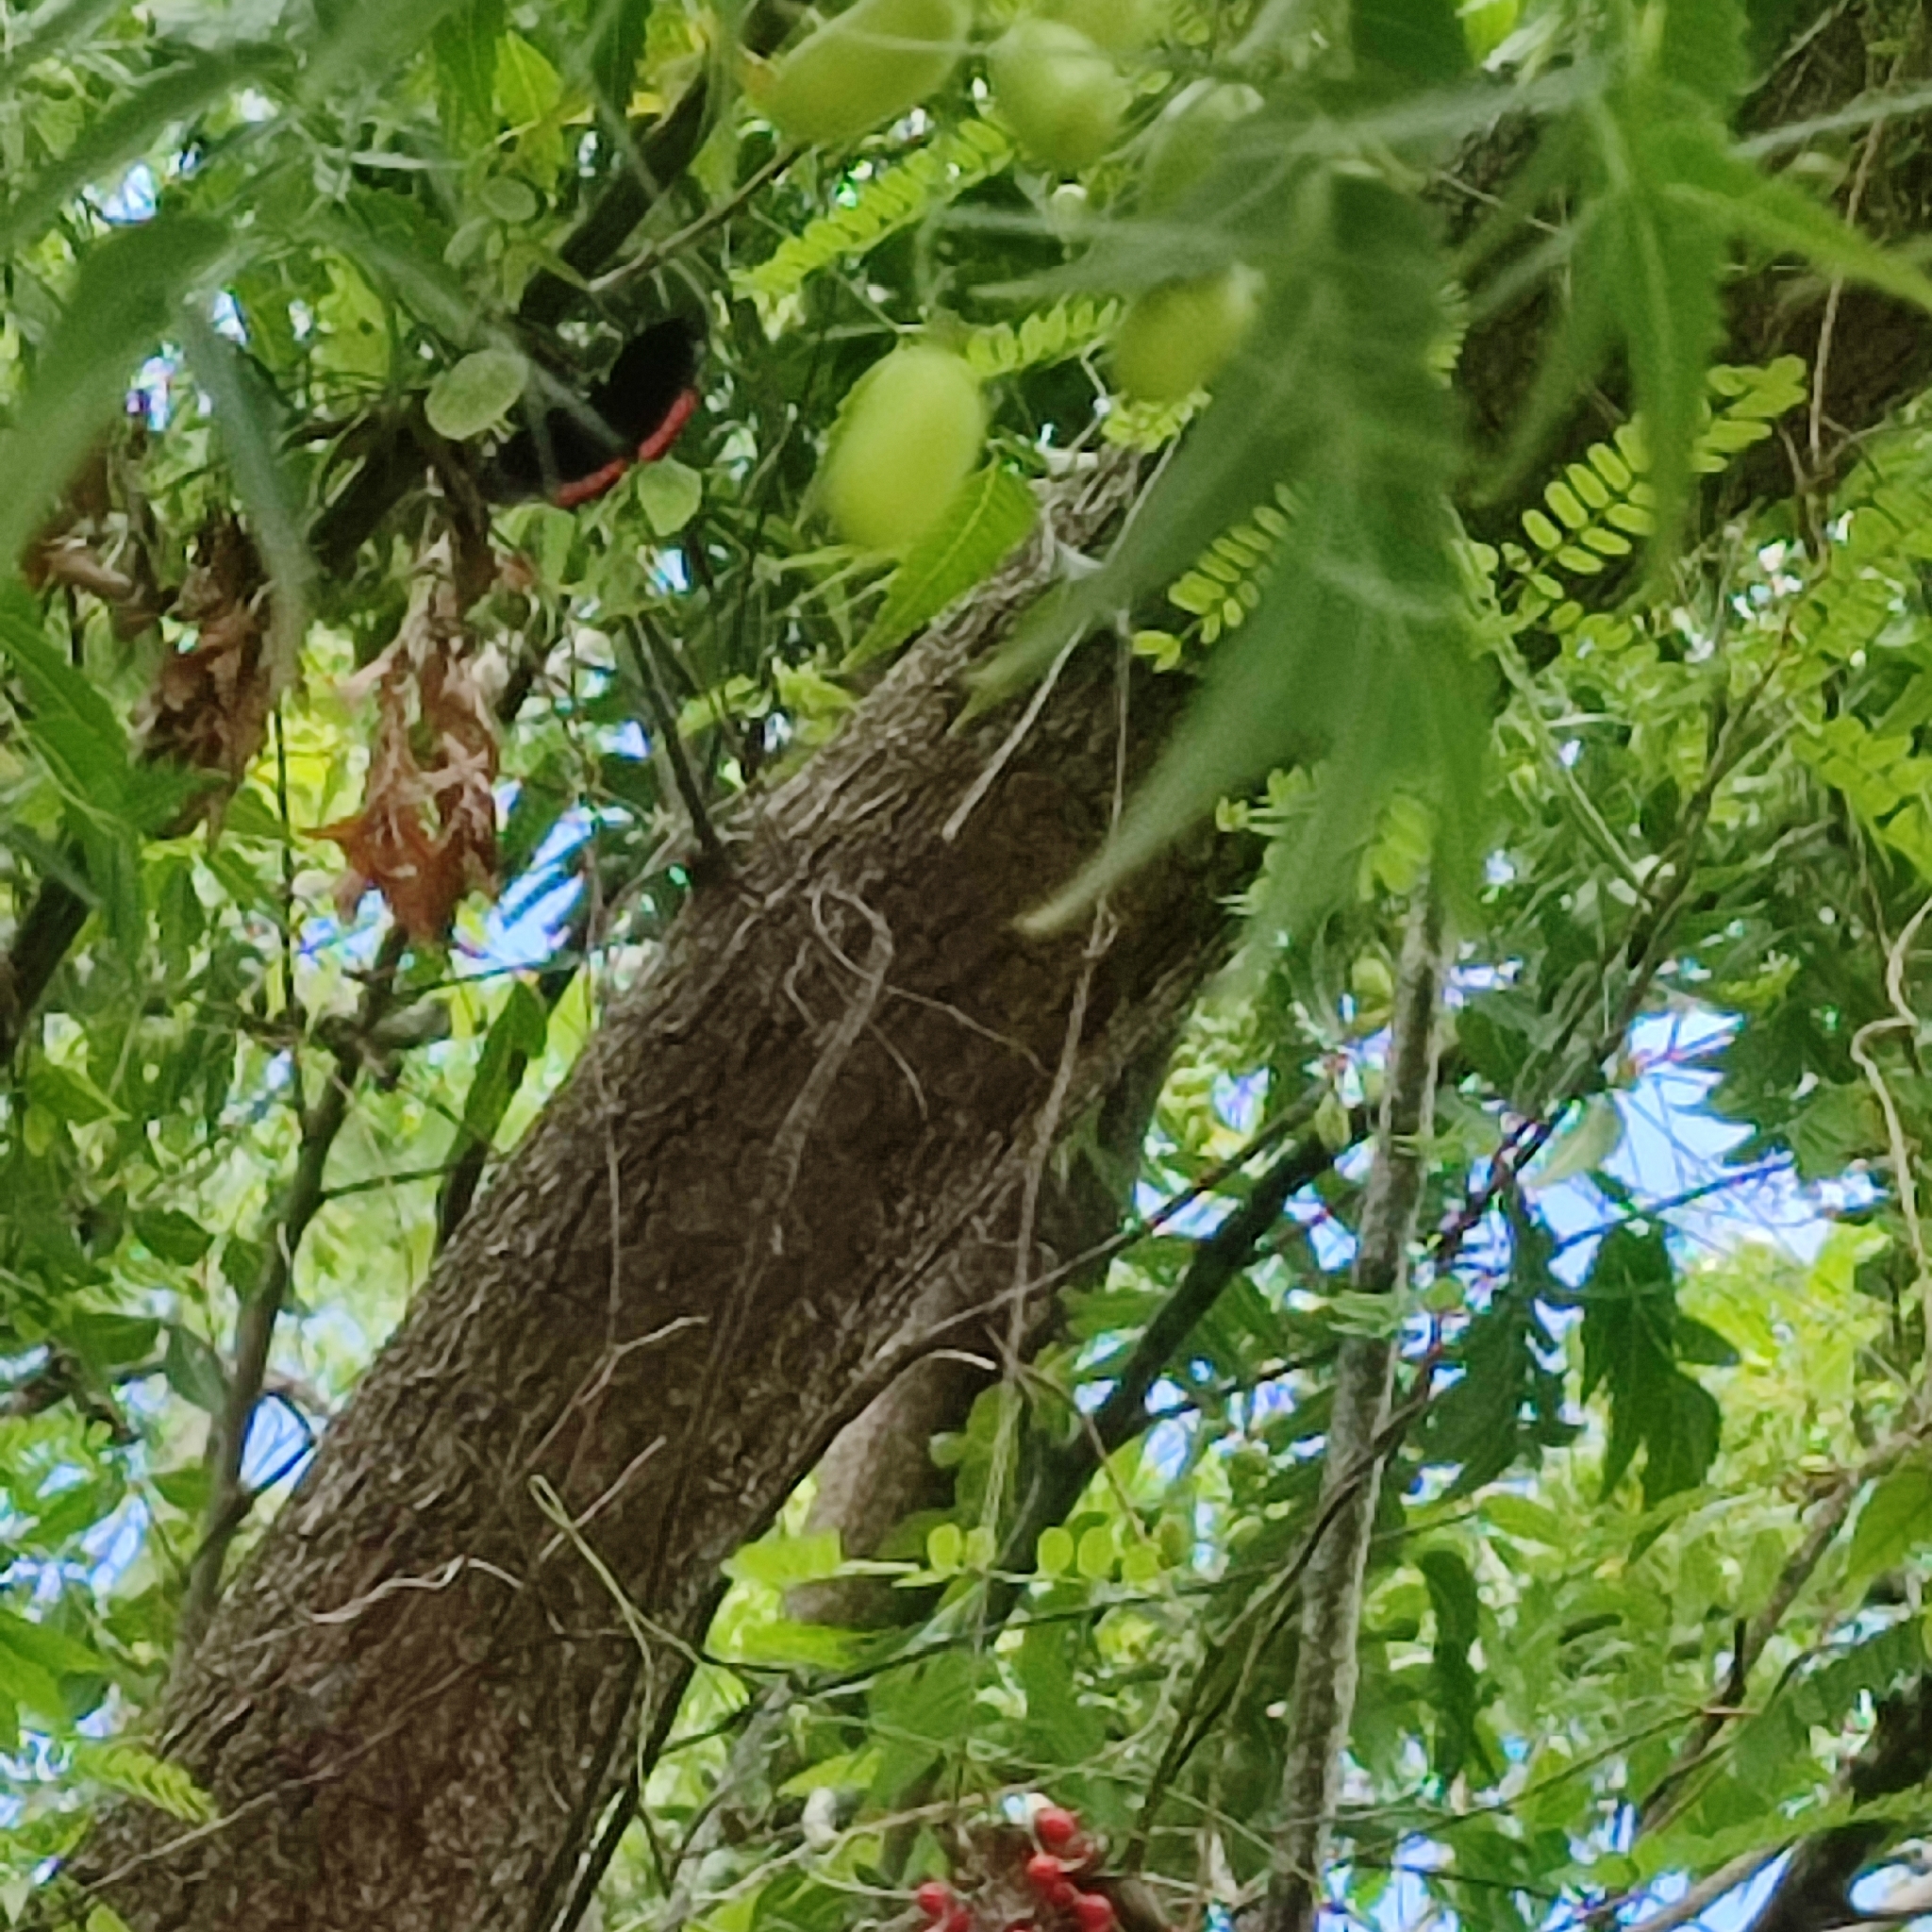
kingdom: Animalia
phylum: Arthropoda
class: Insecta
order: Lepidoptera
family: Sesiidae
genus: Sesia
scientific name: Sesia Biblis hyperia
